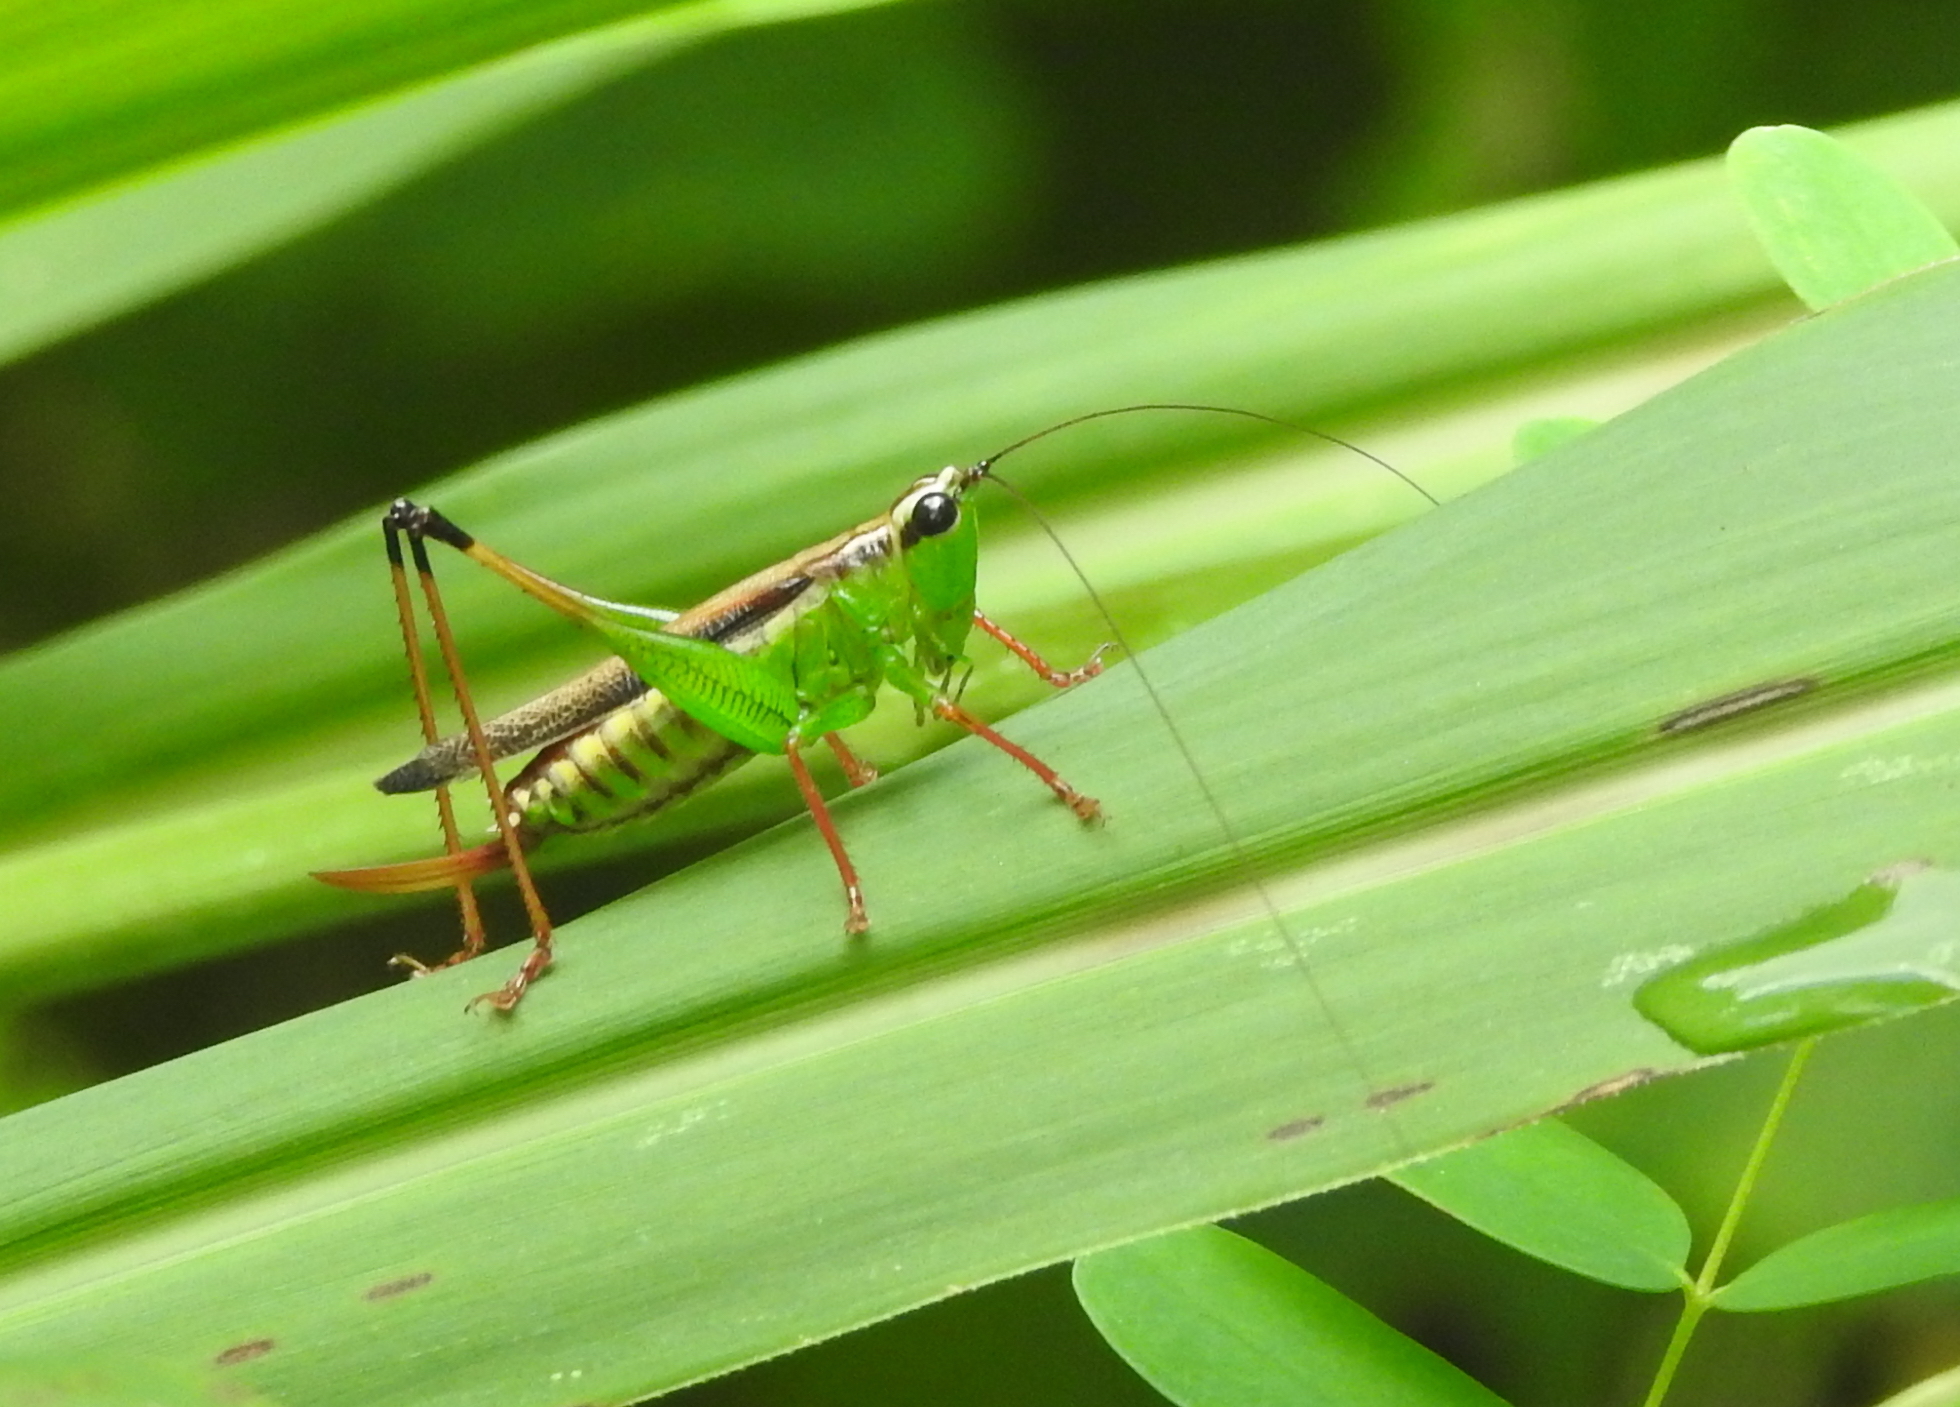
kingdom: Animalia
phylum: Arthropoda
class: Insecta
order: Orthoptera
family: Tettigoniidae
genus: Conocephalus
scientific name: Conocephalus melaenus
